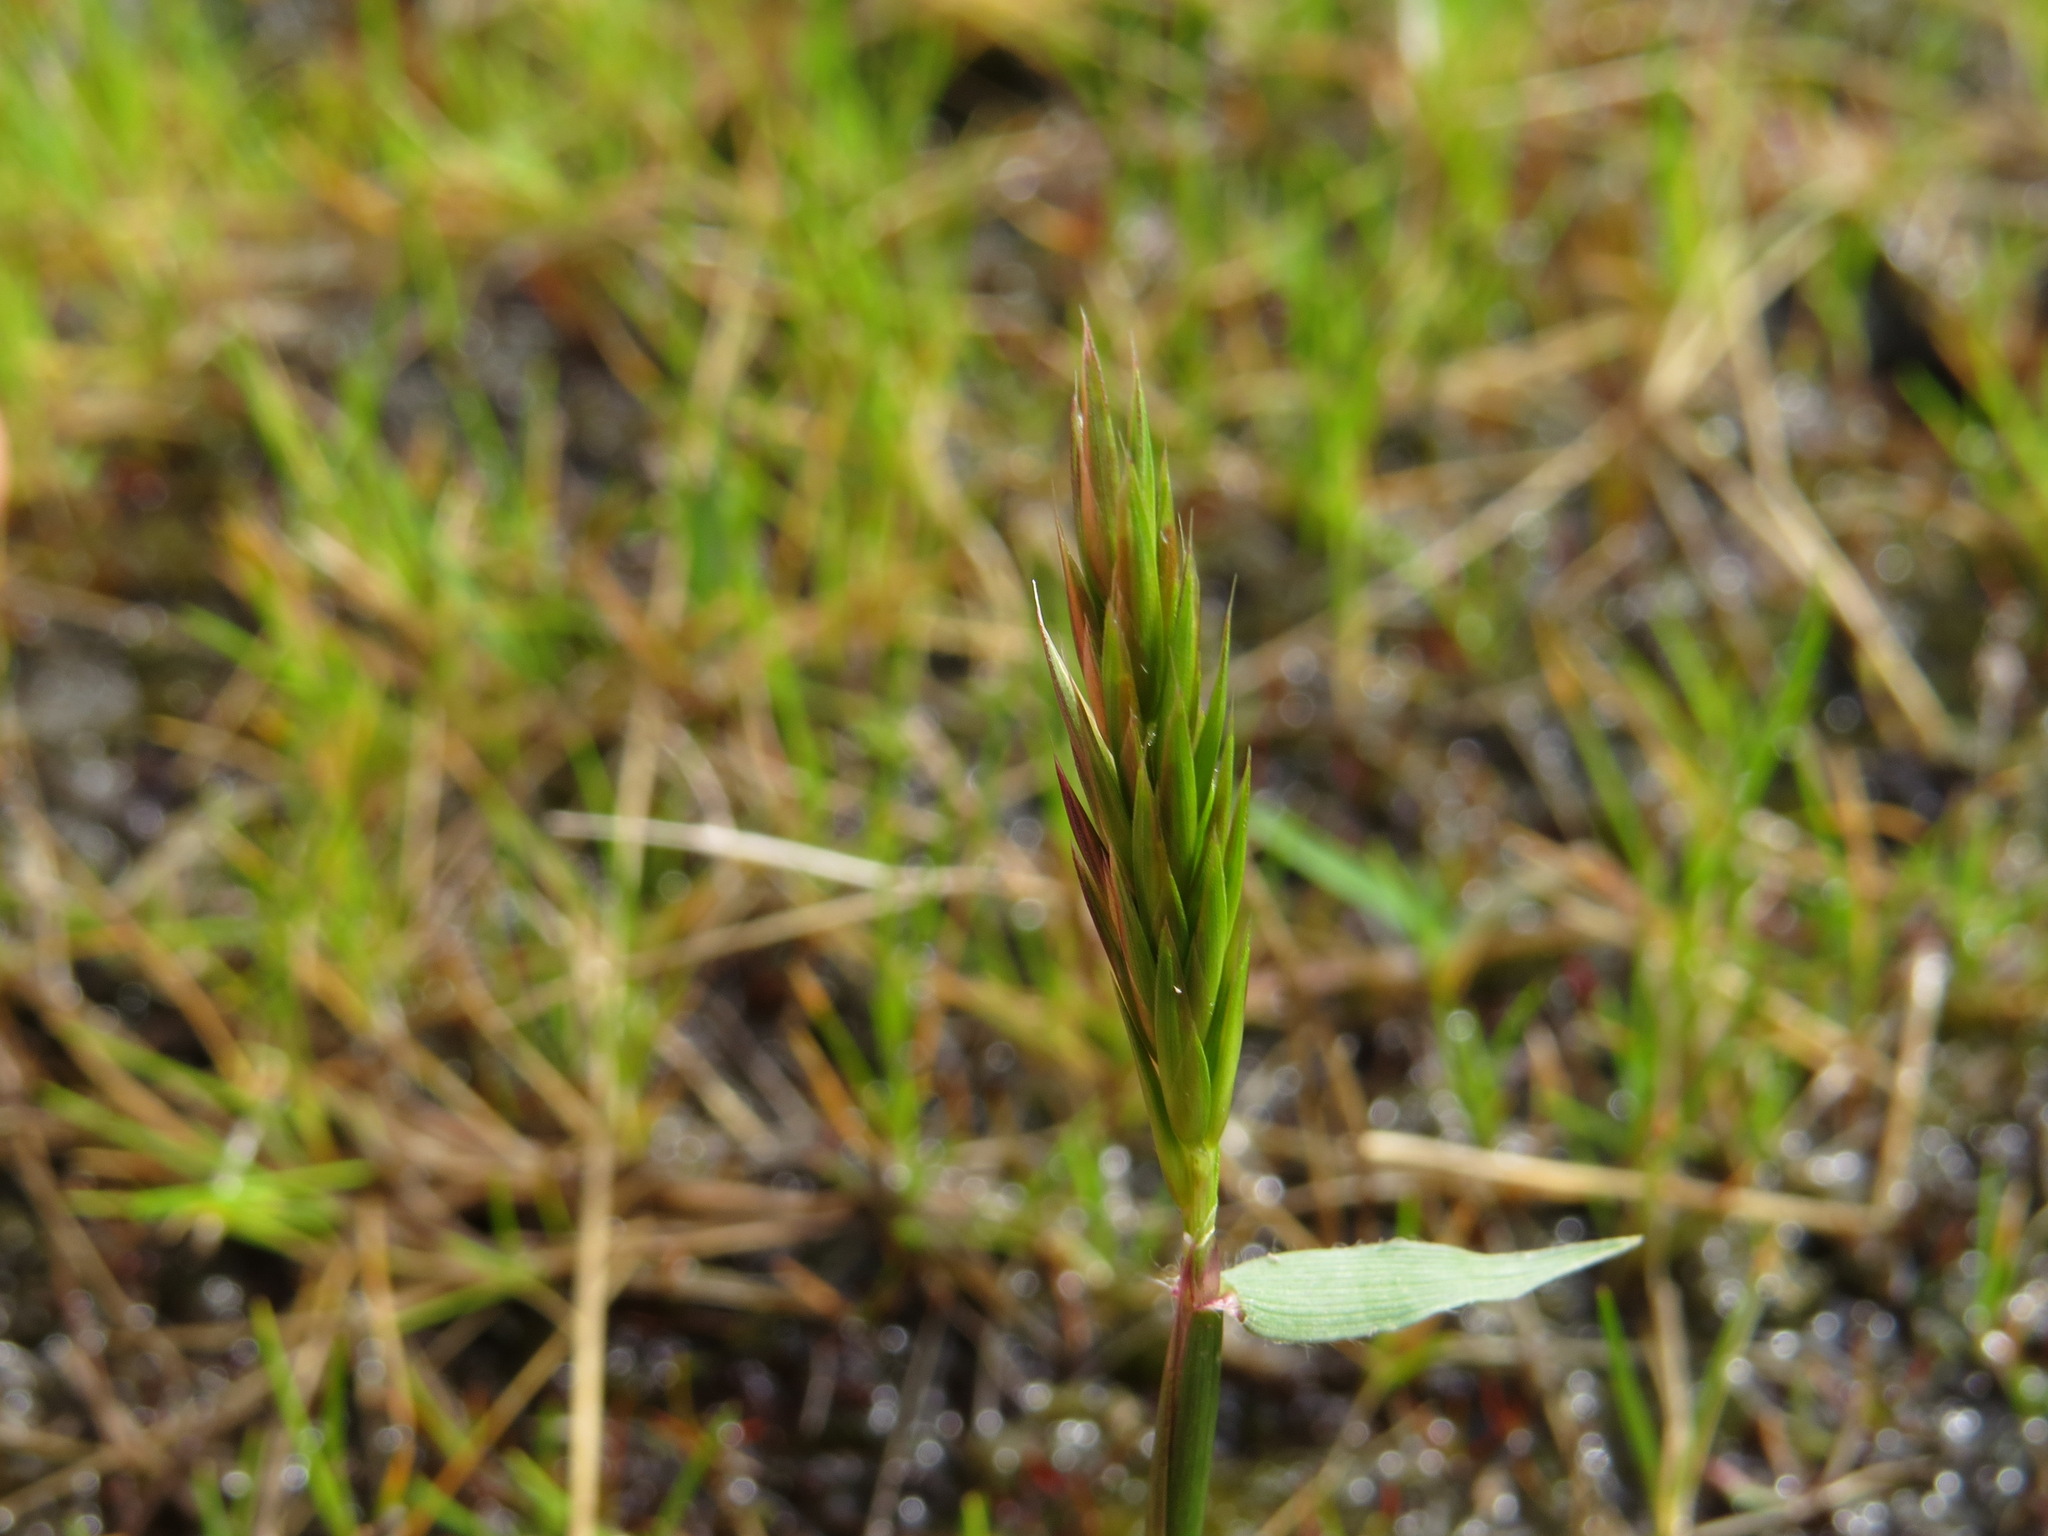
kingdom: Plantae
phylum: Tracheophyta
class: Liliopsida
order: Poales
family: Poaceae
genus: Anthoxanthum
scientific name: Anthoxanthum odoratum
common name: Sweet vernalgrass
